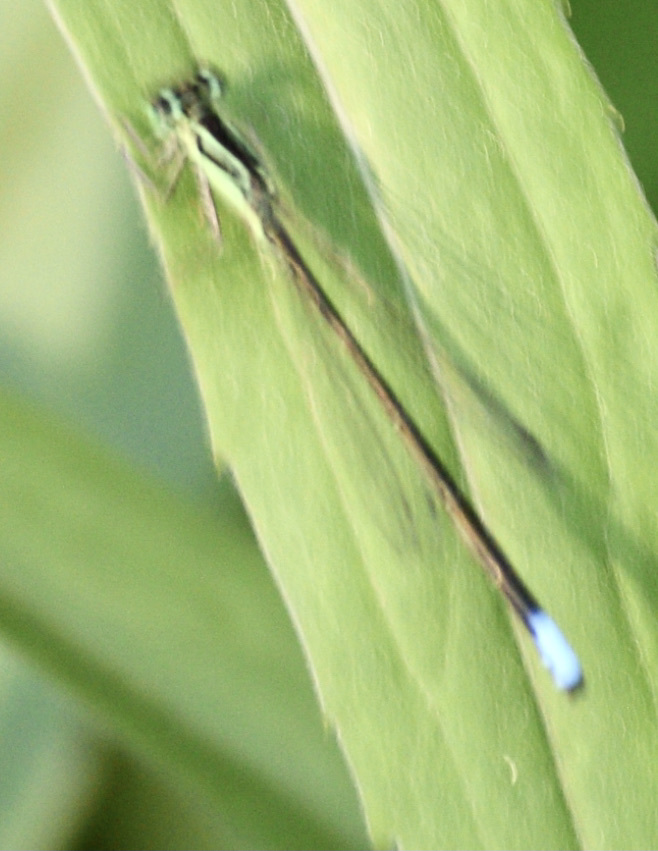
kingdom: Animalia
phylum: Arthropoda
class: Insecta
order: Odonata
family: Coenagrionidae
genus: Ischnura
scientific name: Ischnura verticalis
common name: Eastern forktail
